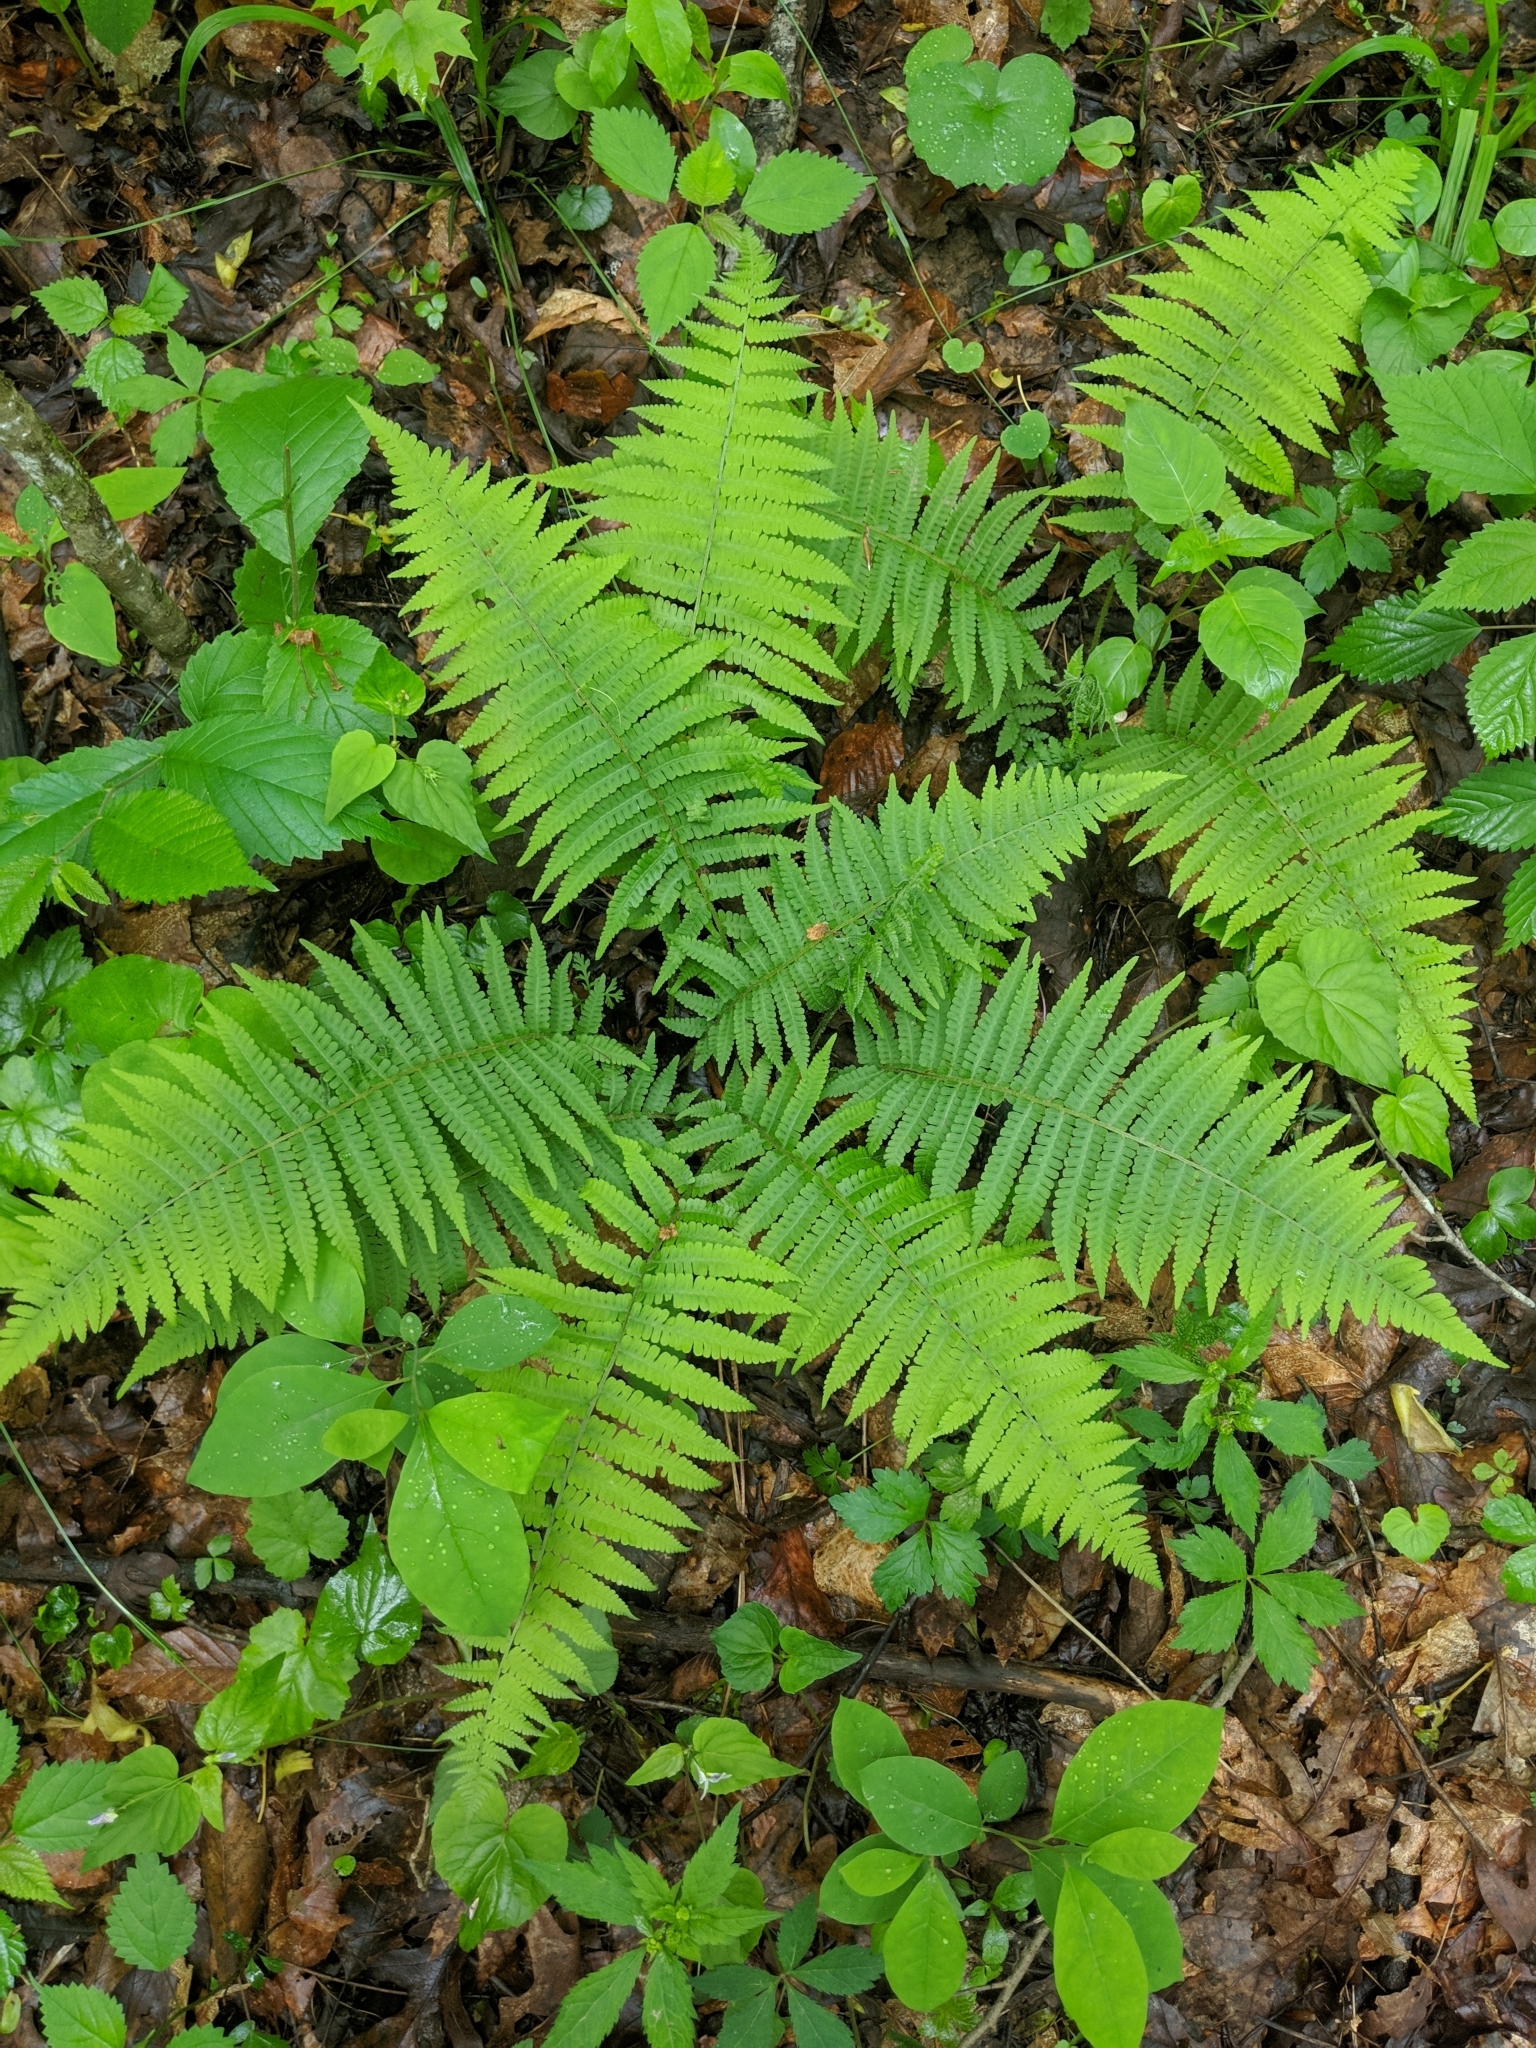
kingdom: Plantae
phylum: Tracheophyta
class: Polypodiopsida
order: Polypodiales
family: Athyriaceae
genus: Deparia
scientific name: Deparia acrostichoides
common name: Silver false spleenwort
